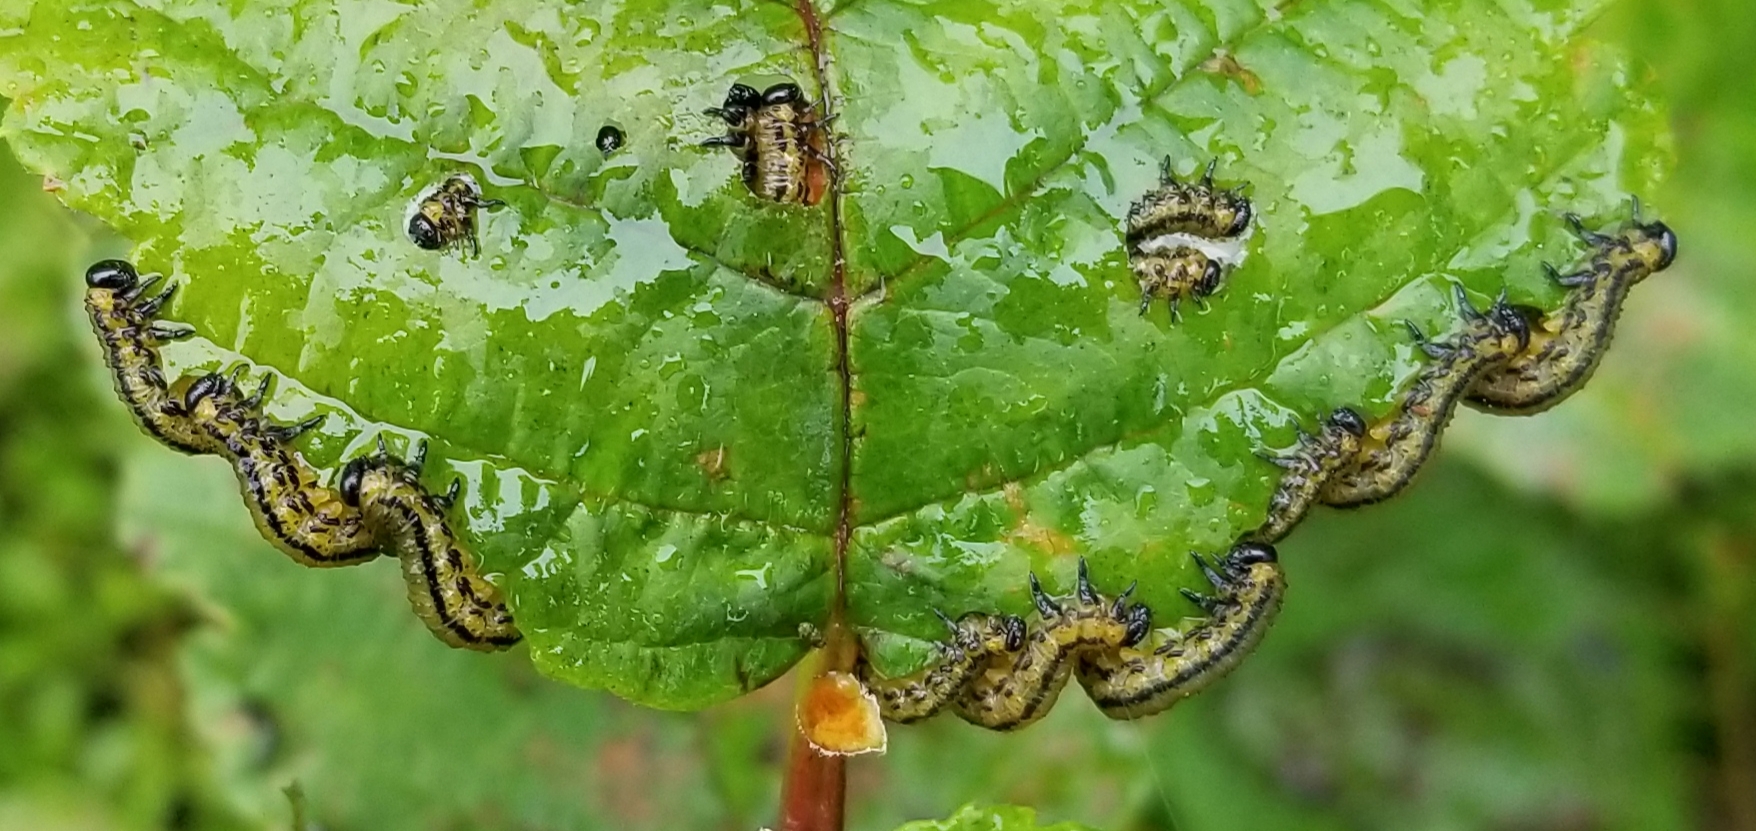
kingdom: Animalia
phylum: Arthropoda
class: Insecta
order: Hymenoptera
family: Tenthredinidae
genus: Hemichroa
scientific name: Hemichroa crocea
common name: Striped alder sawfly
